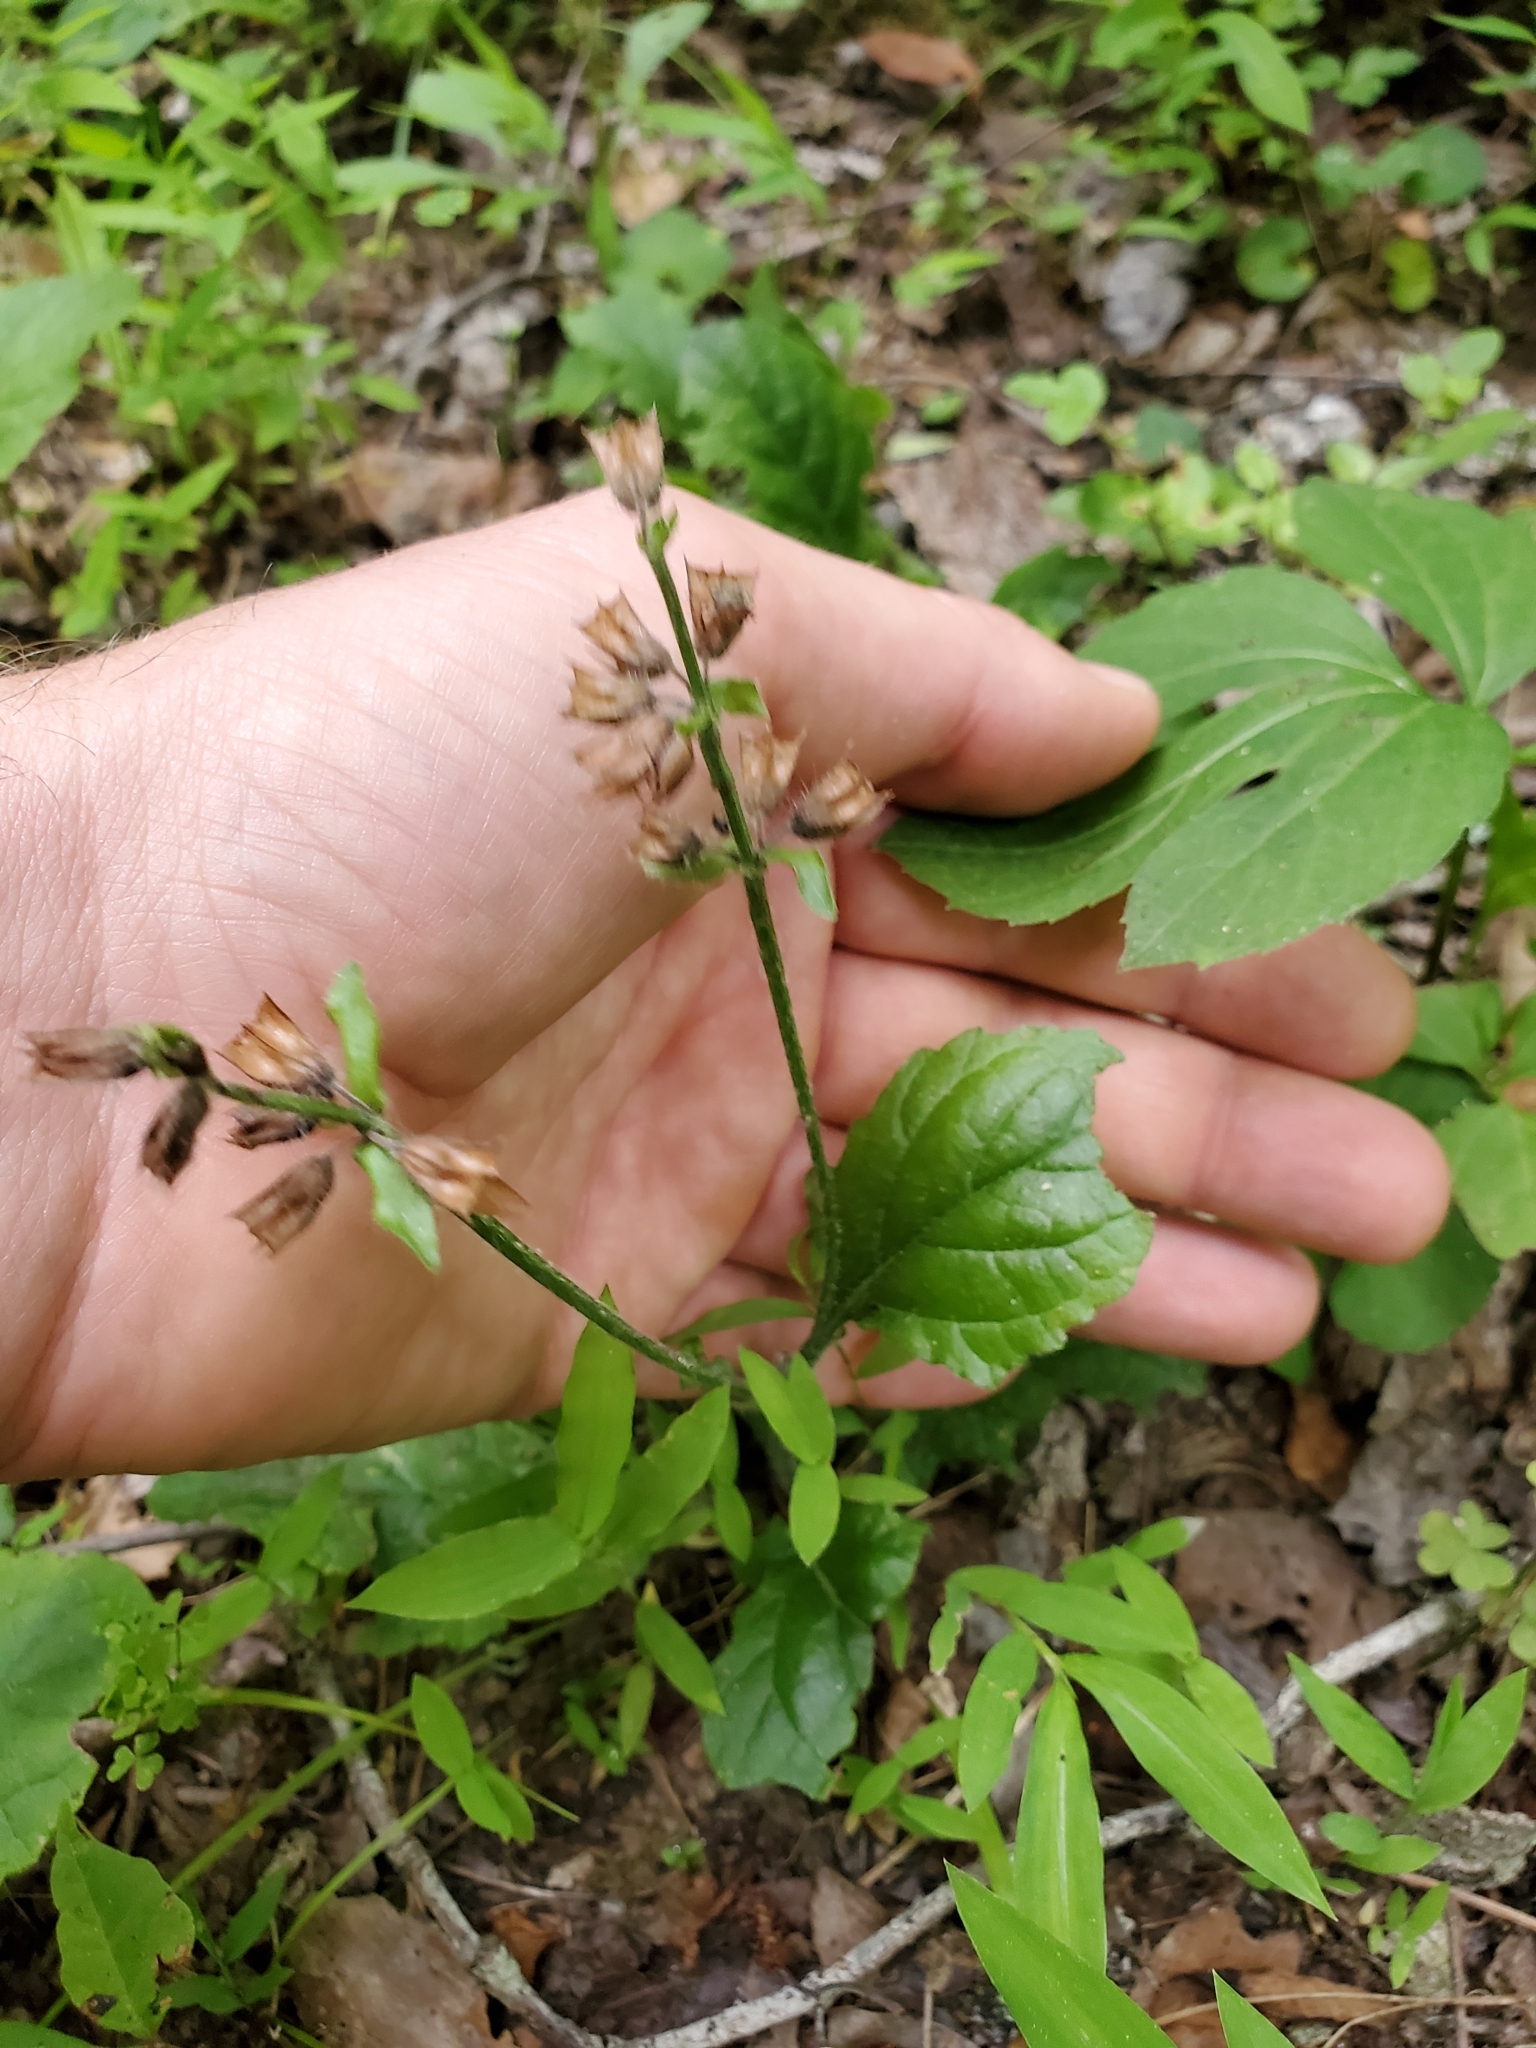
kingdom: Plantae
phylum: Tracheophyta
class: Magnoliopsida
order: Lamiales
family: Lamiaceae
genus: Salvia
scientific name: Salvia lyrata
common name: Cancerweed
